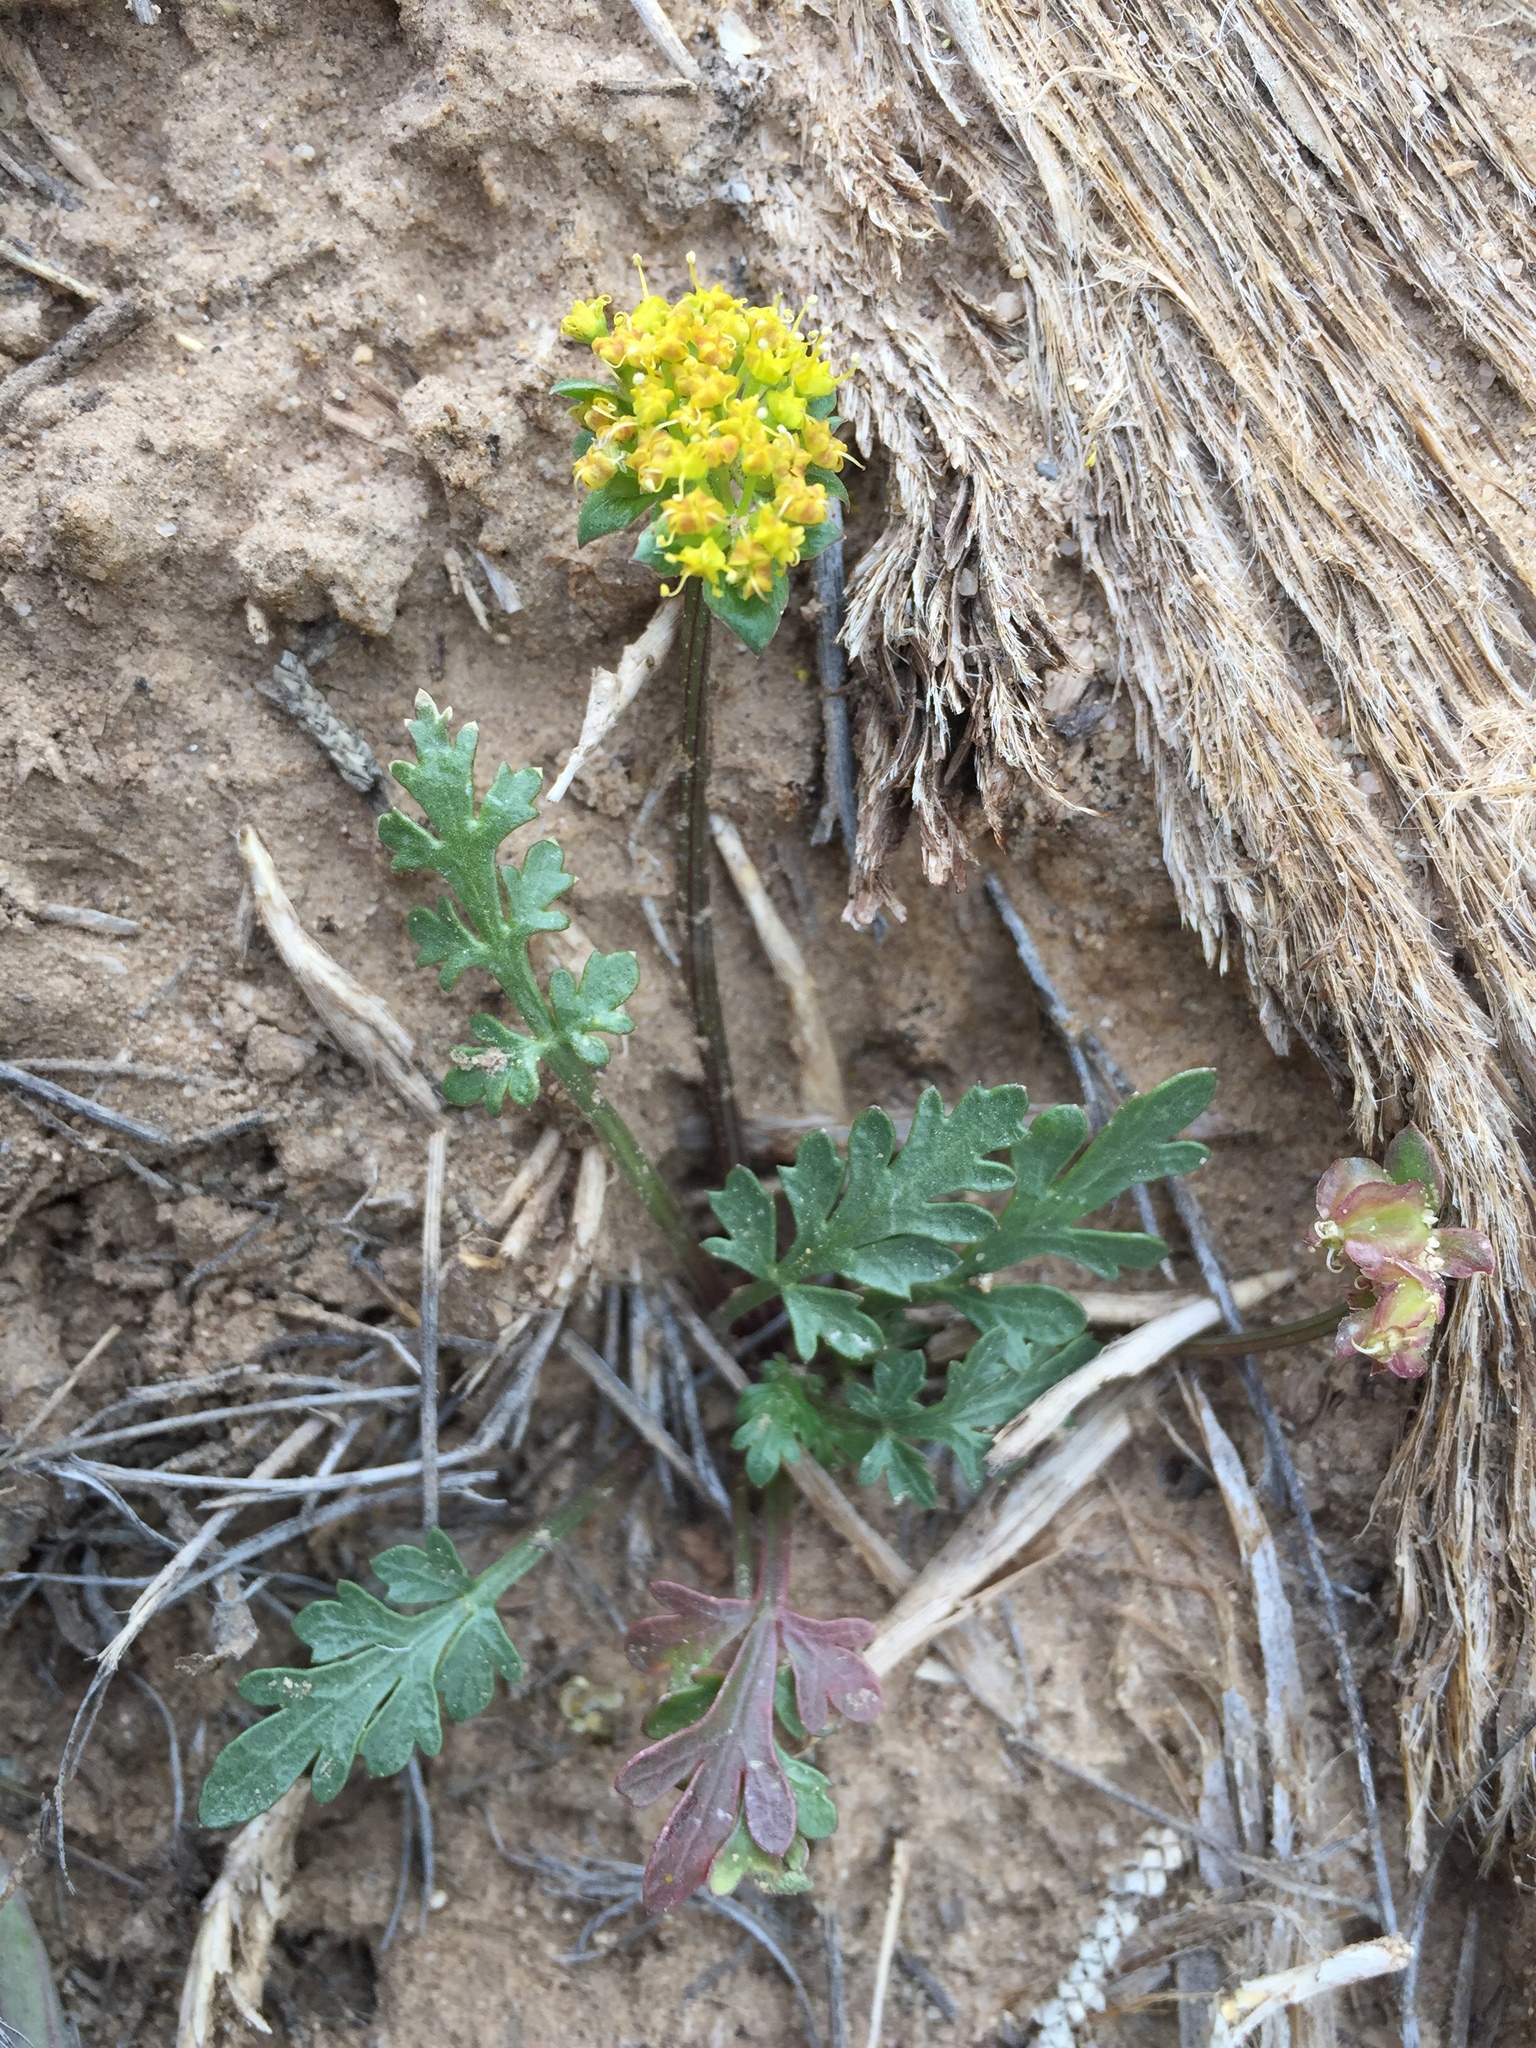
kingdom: Plantae
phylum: Tracheophyta
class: Magnoliopsida
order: Apiales
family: Apiaceae
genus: Cymopterus
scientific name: Cymopterus glomeratus
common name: Plains spring parsley
